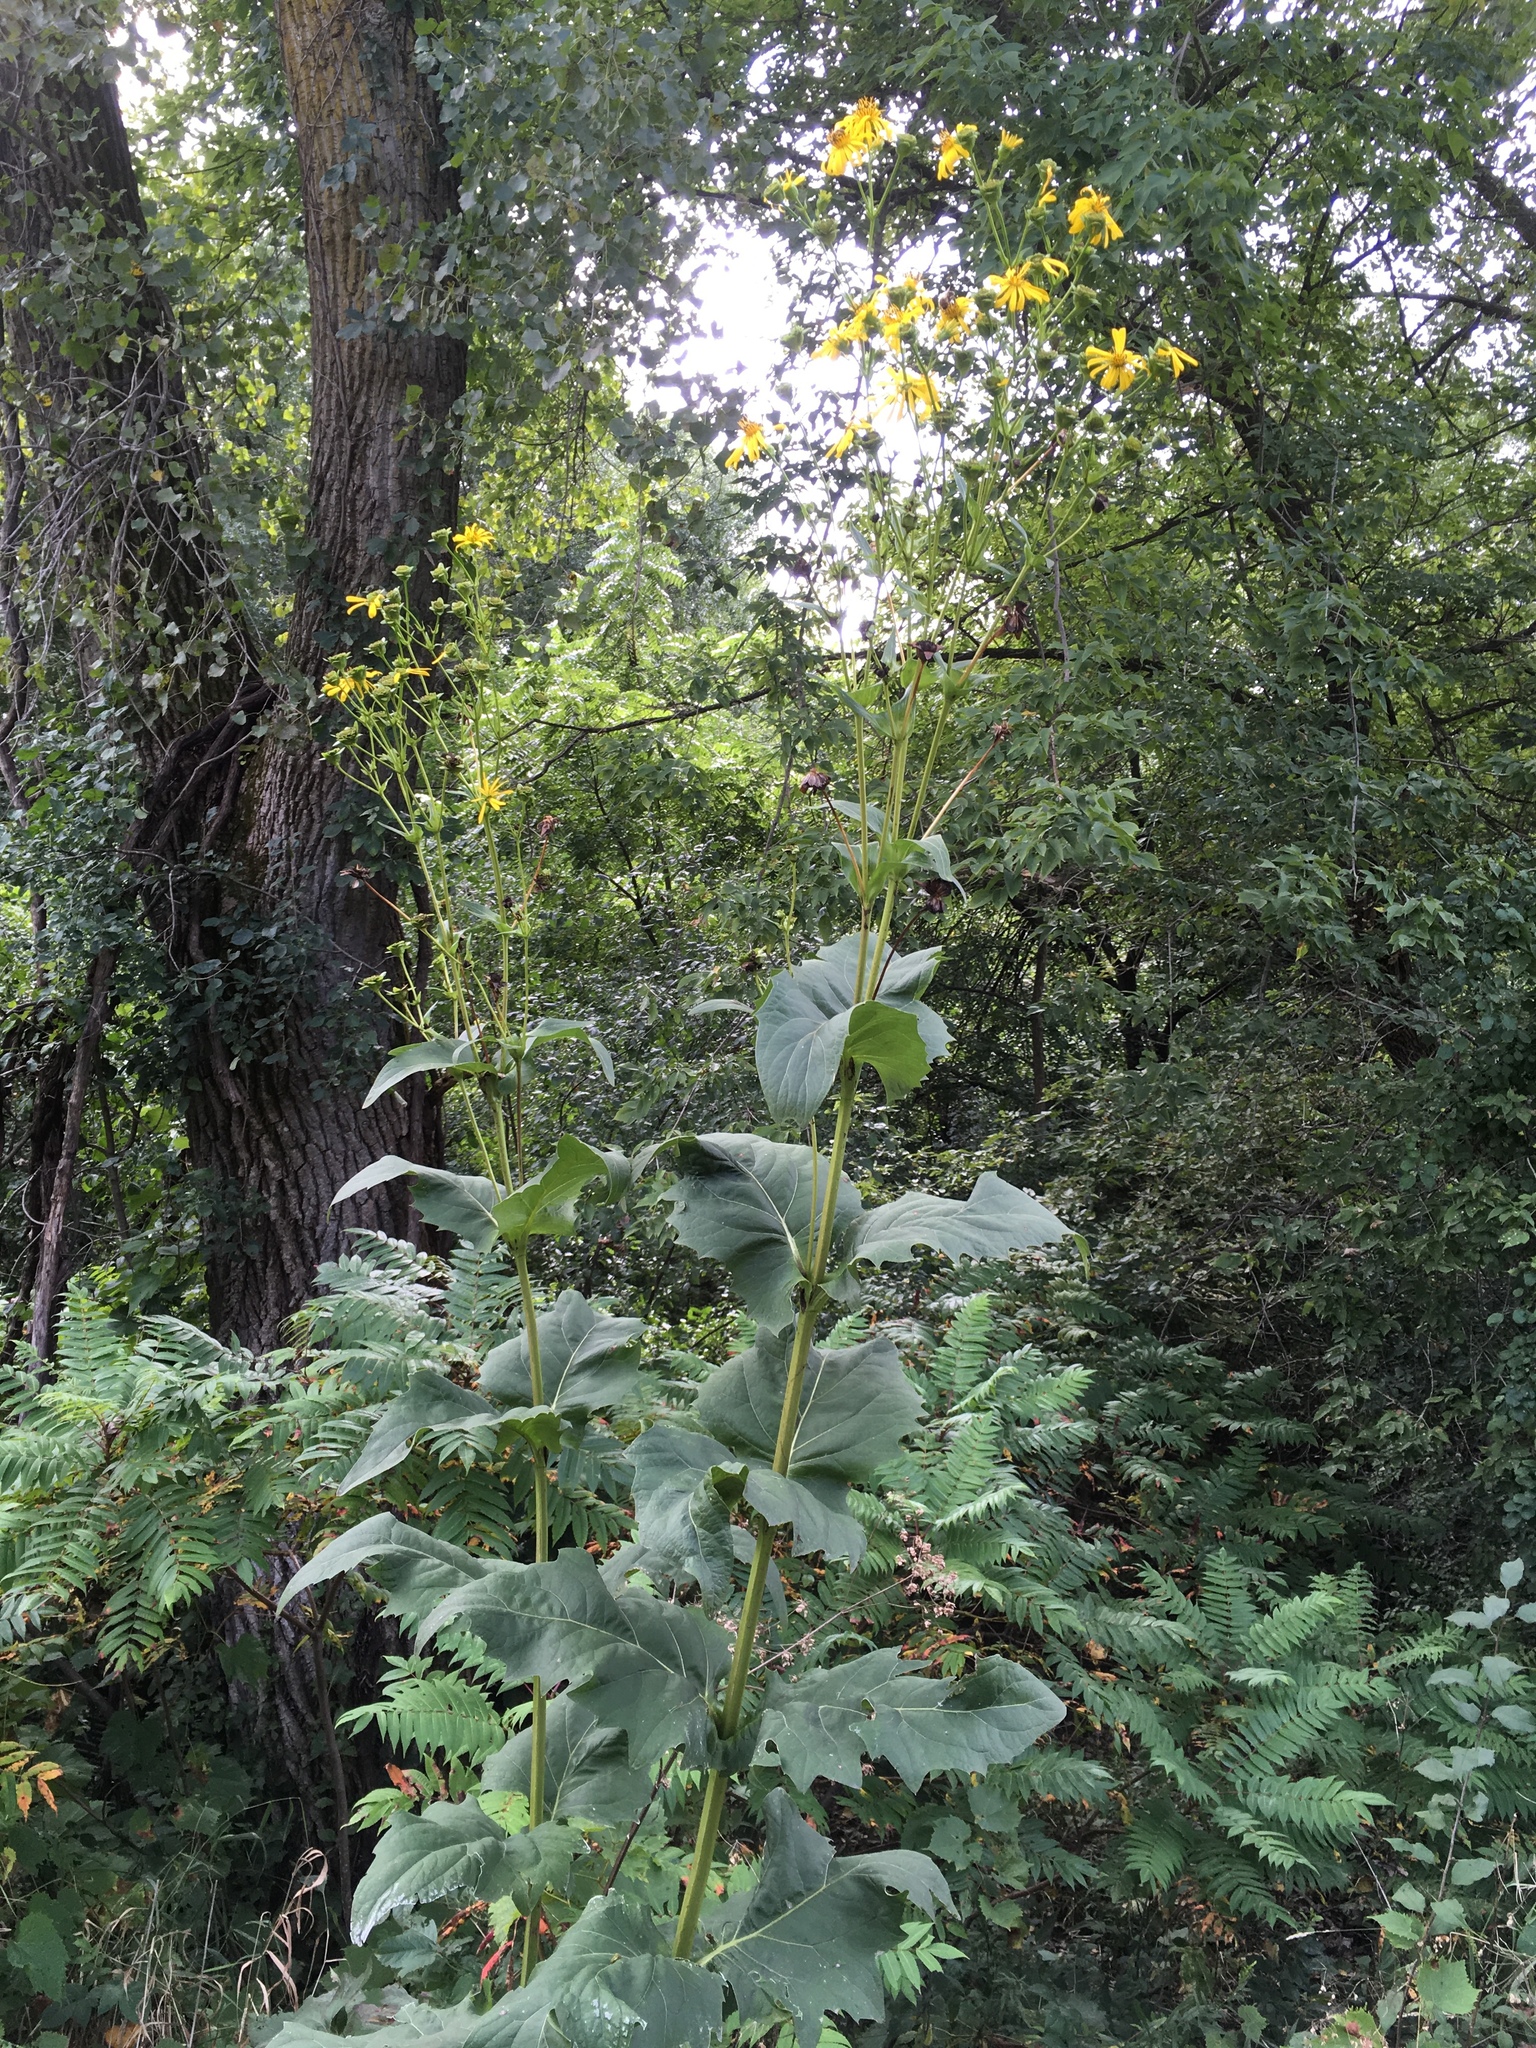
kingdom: Plantae
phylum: Tracheophyta
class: Magnoliopsida
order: Asterales
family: Asteraceae
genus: Silphium
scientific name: Silphium perfoliatum
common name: Cup-plant
